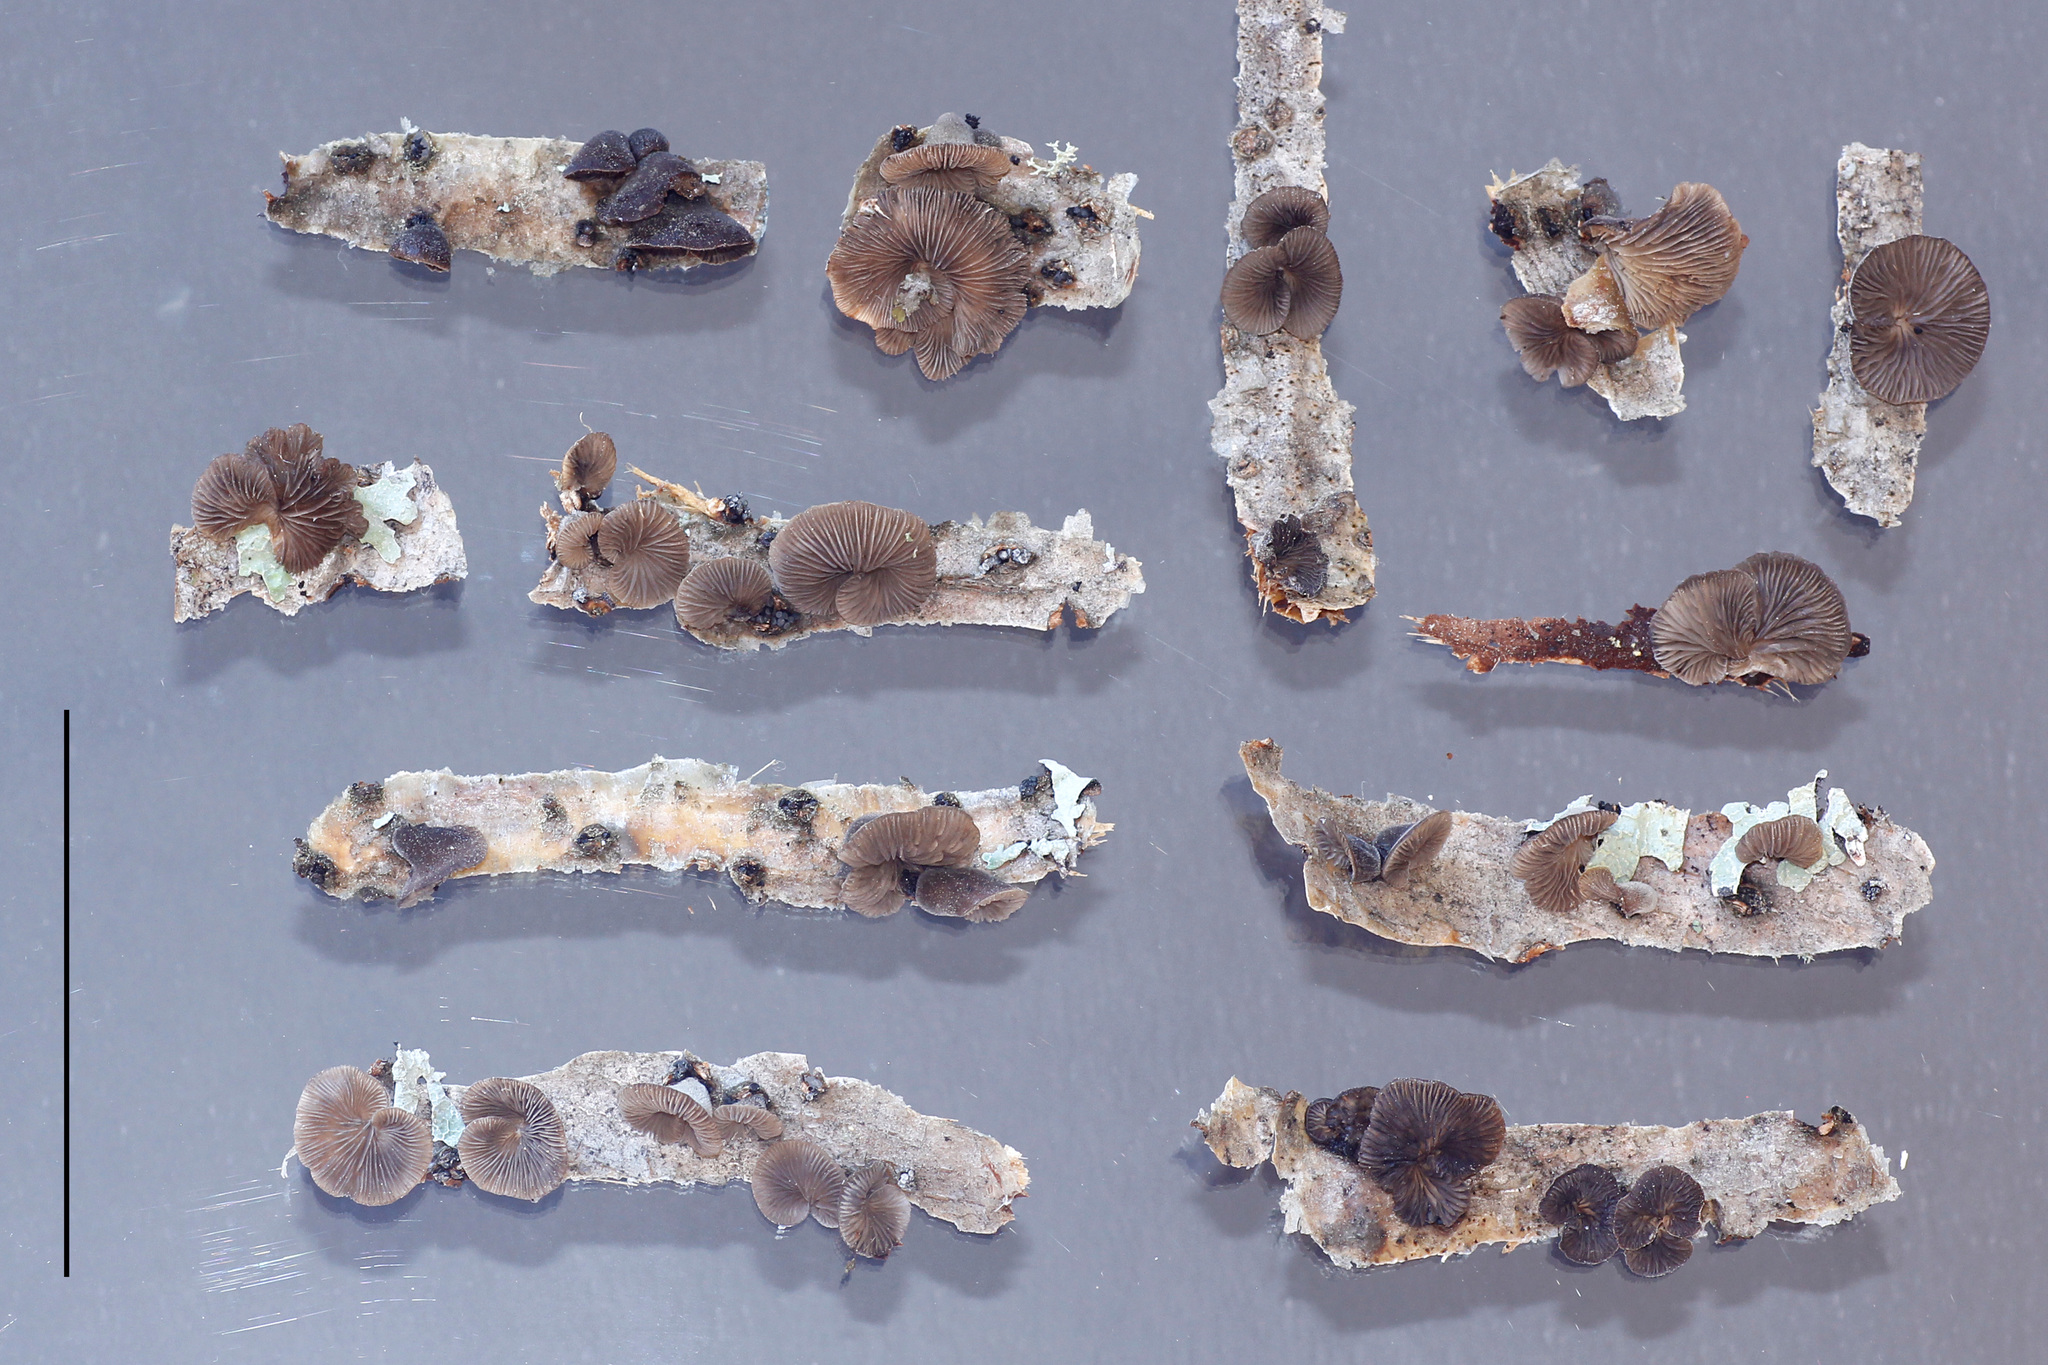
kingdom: Fungi
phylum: Basidiomycota
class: Agaricomycetes
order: Agaricales
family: Pleurotaceae
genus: Hohenbuehelia
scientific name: Hohenbuehelia nigra
